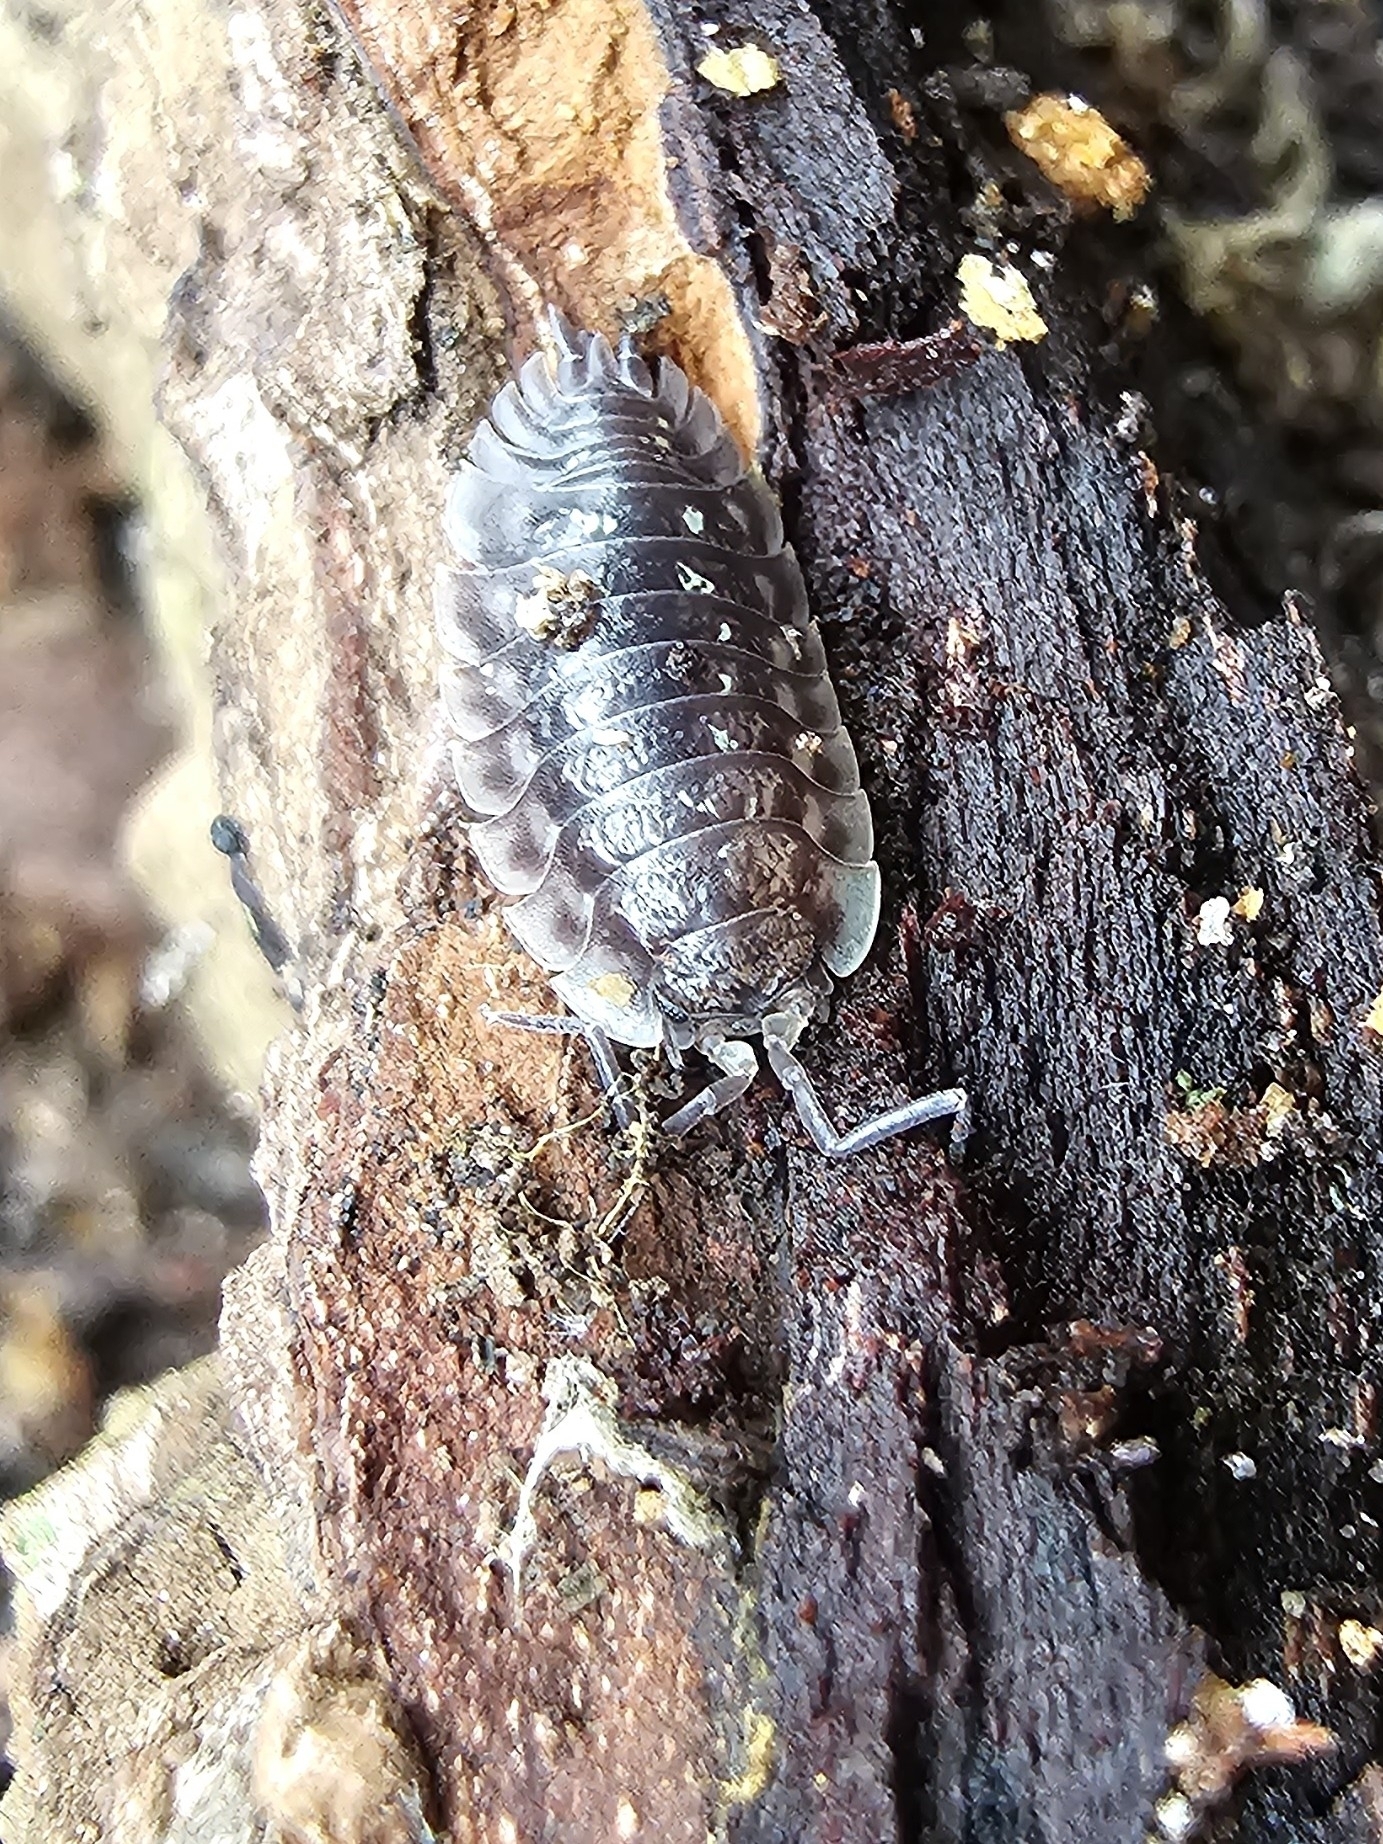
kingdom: Animalia
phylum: Arthropoda
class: Malacostraca
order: Isopoda
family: Oniscidae
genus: Oniscus
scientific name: Oniscus asellus
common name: Common shiny woodlouse
